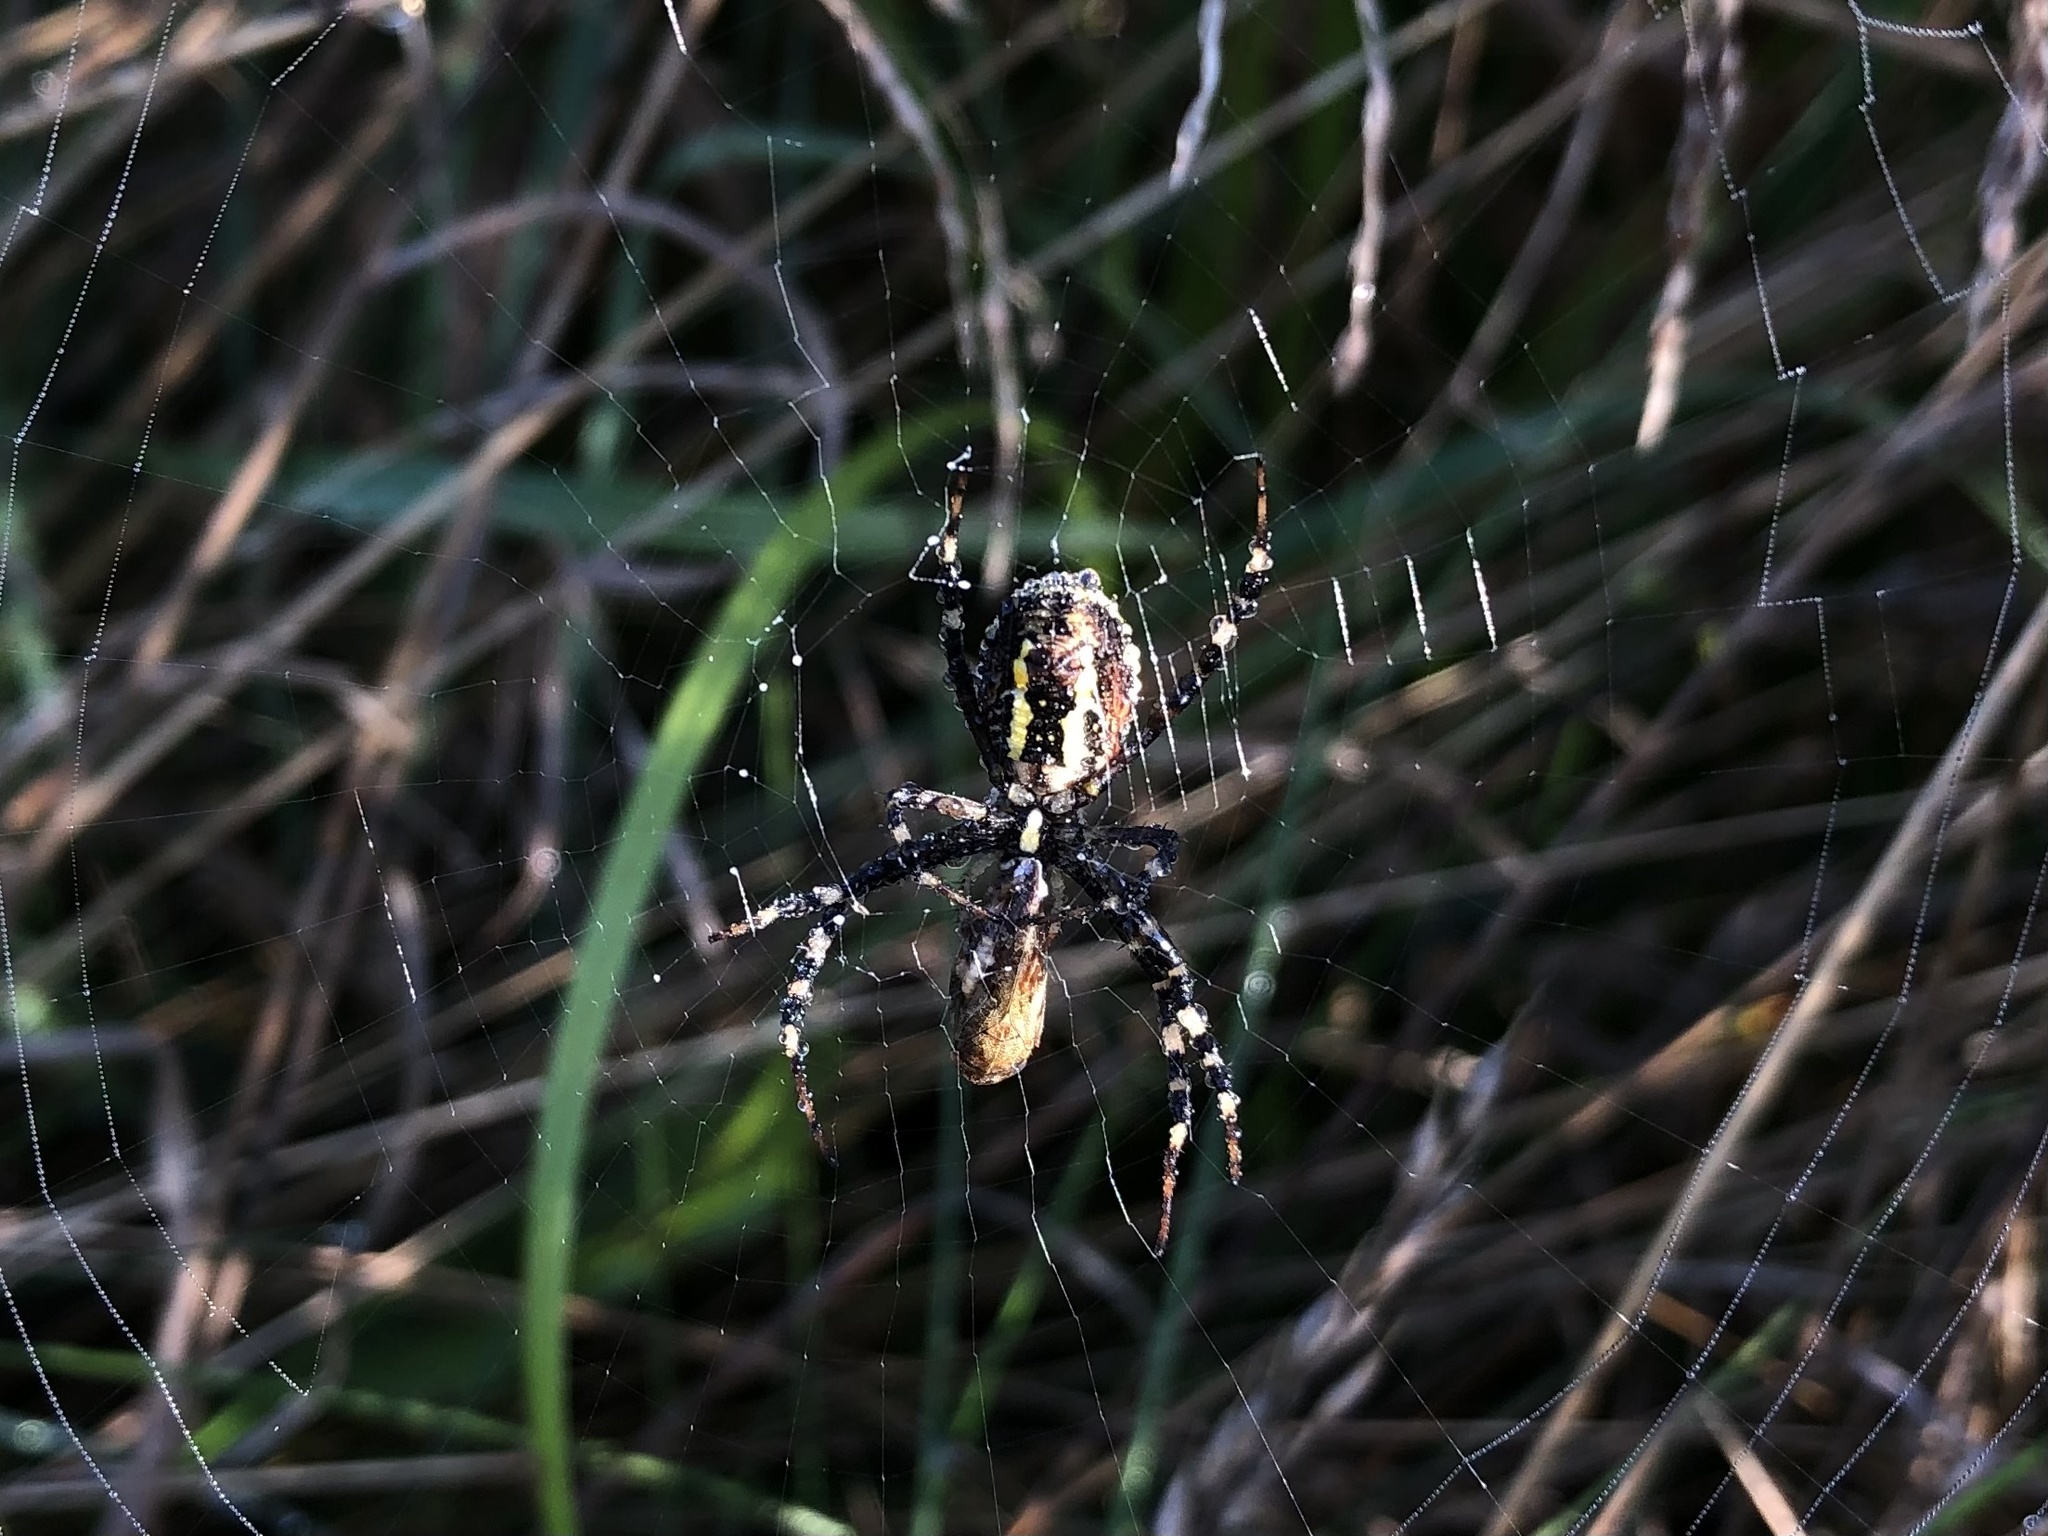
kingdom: Animalia
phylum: Arthropoda
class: Arachnida
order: Araneae
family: Araneidae
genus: Argiope
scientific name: Argiope bruennichi
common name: Wasp spider
